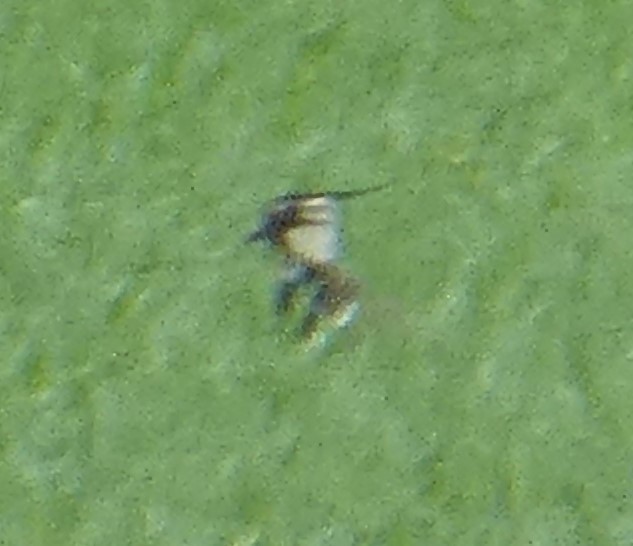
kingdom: Animalia
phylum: Chordata
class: Aves
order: Charadriiformes
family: Charadriidae
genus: Vanellus
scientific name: Vanellus vanellus
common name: Northern lapwing
